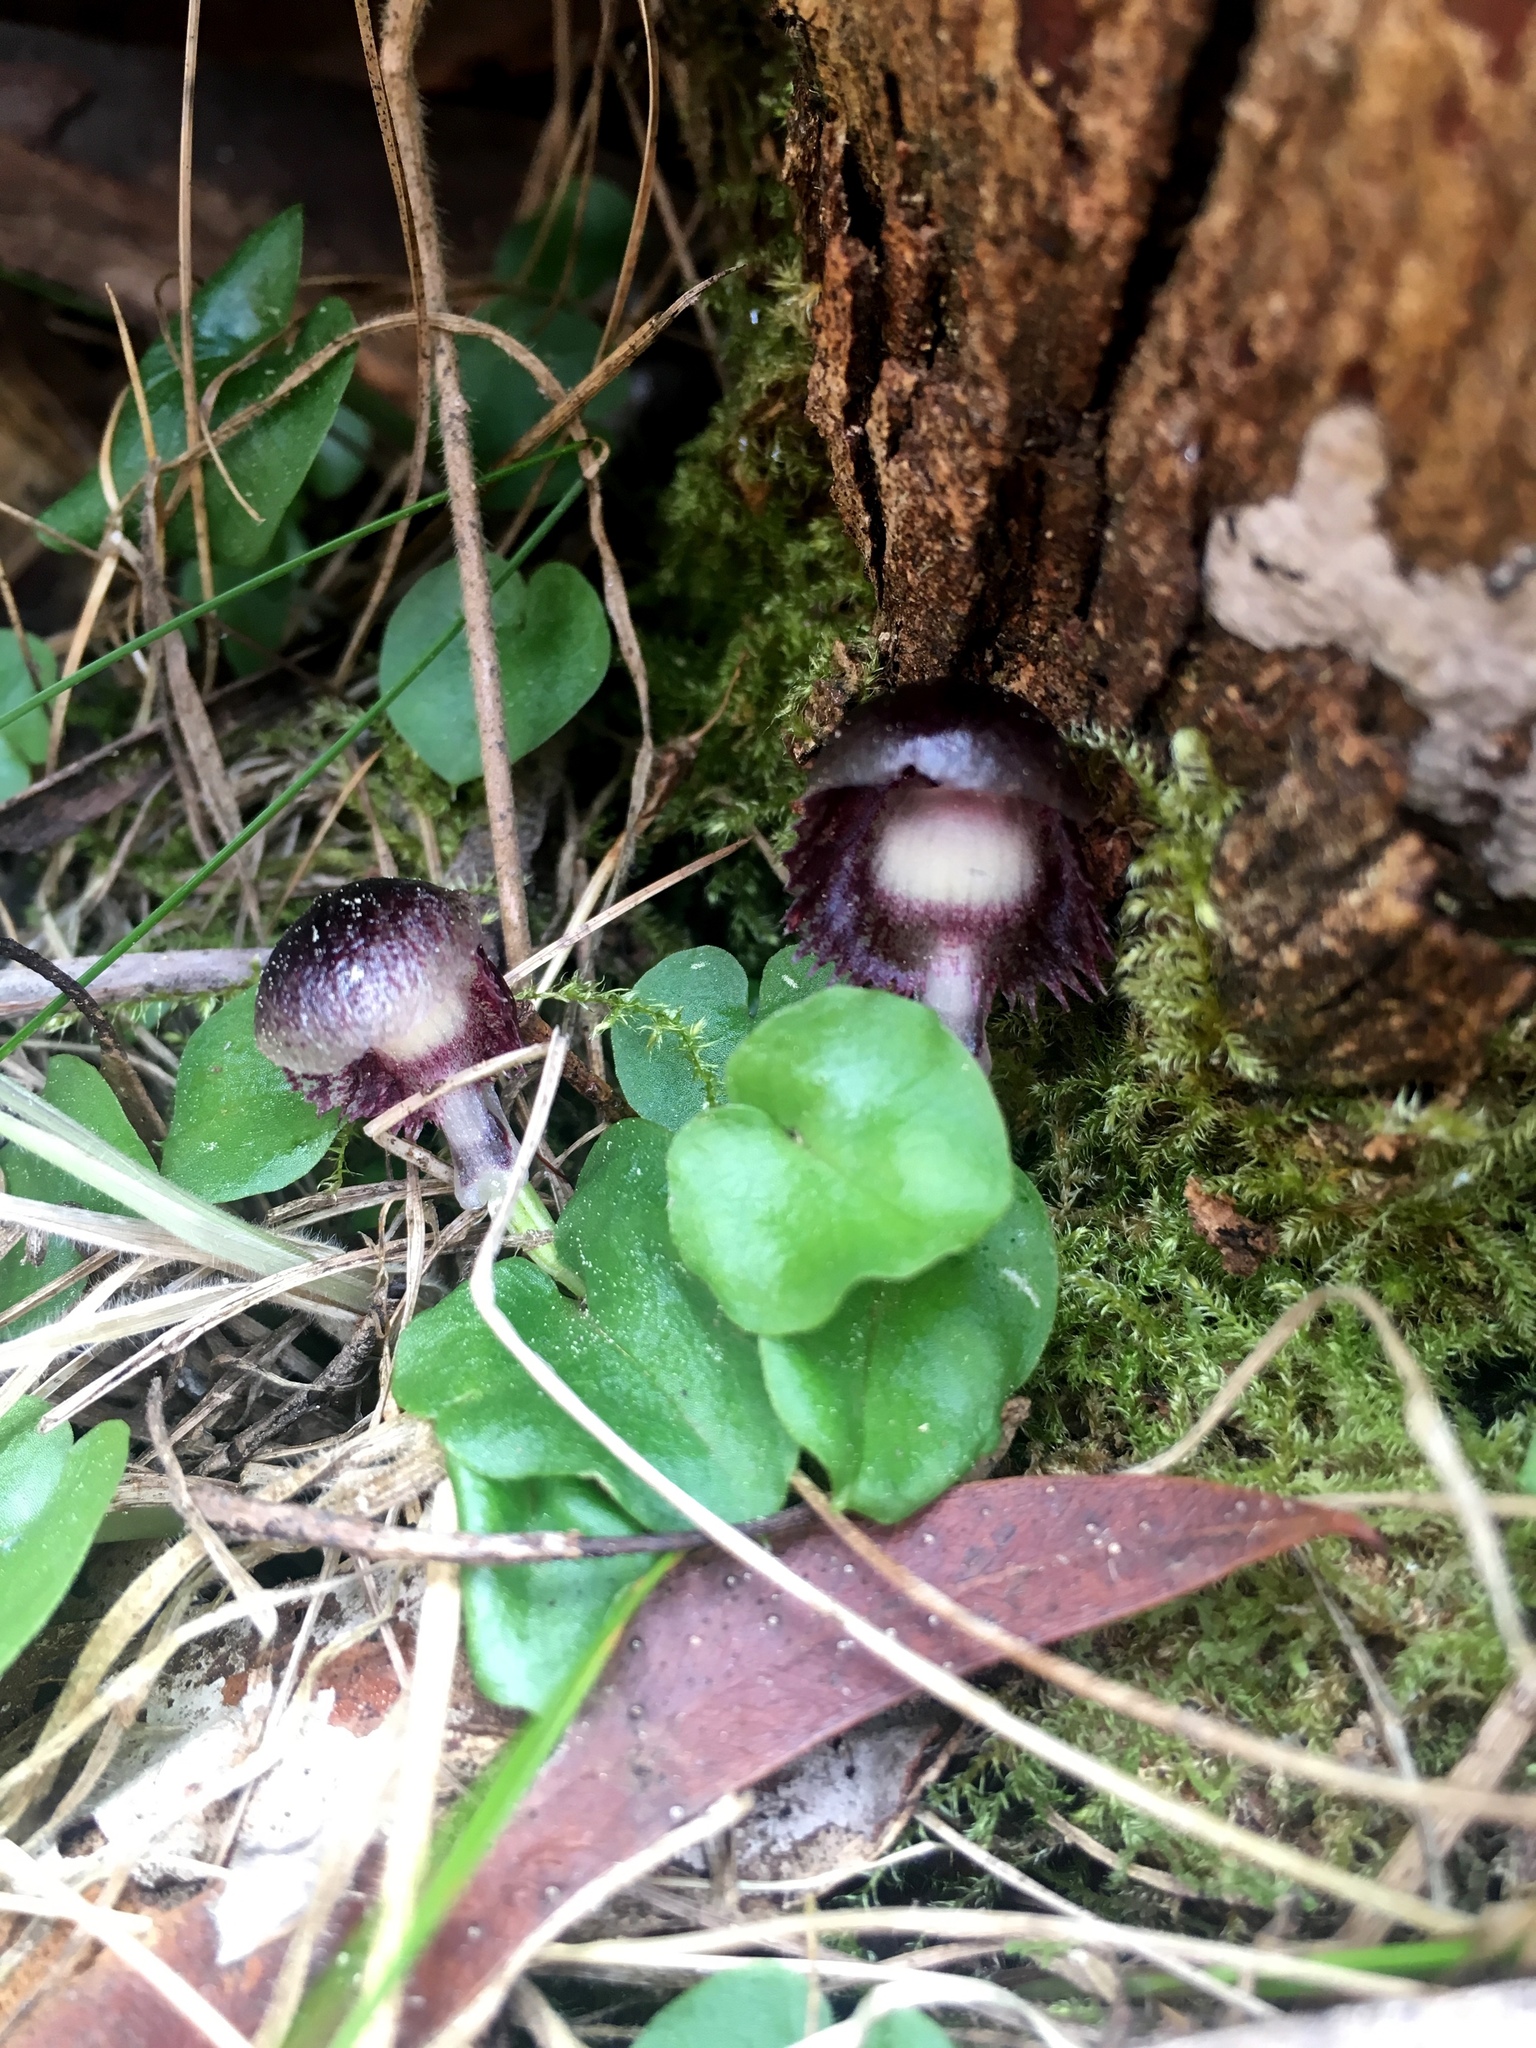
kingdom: Plantae
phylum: Tracheophyta
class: Liliopsida
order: Asparagales
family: Orchidaceae
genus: Corybas
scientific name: Corybas diemenicus
